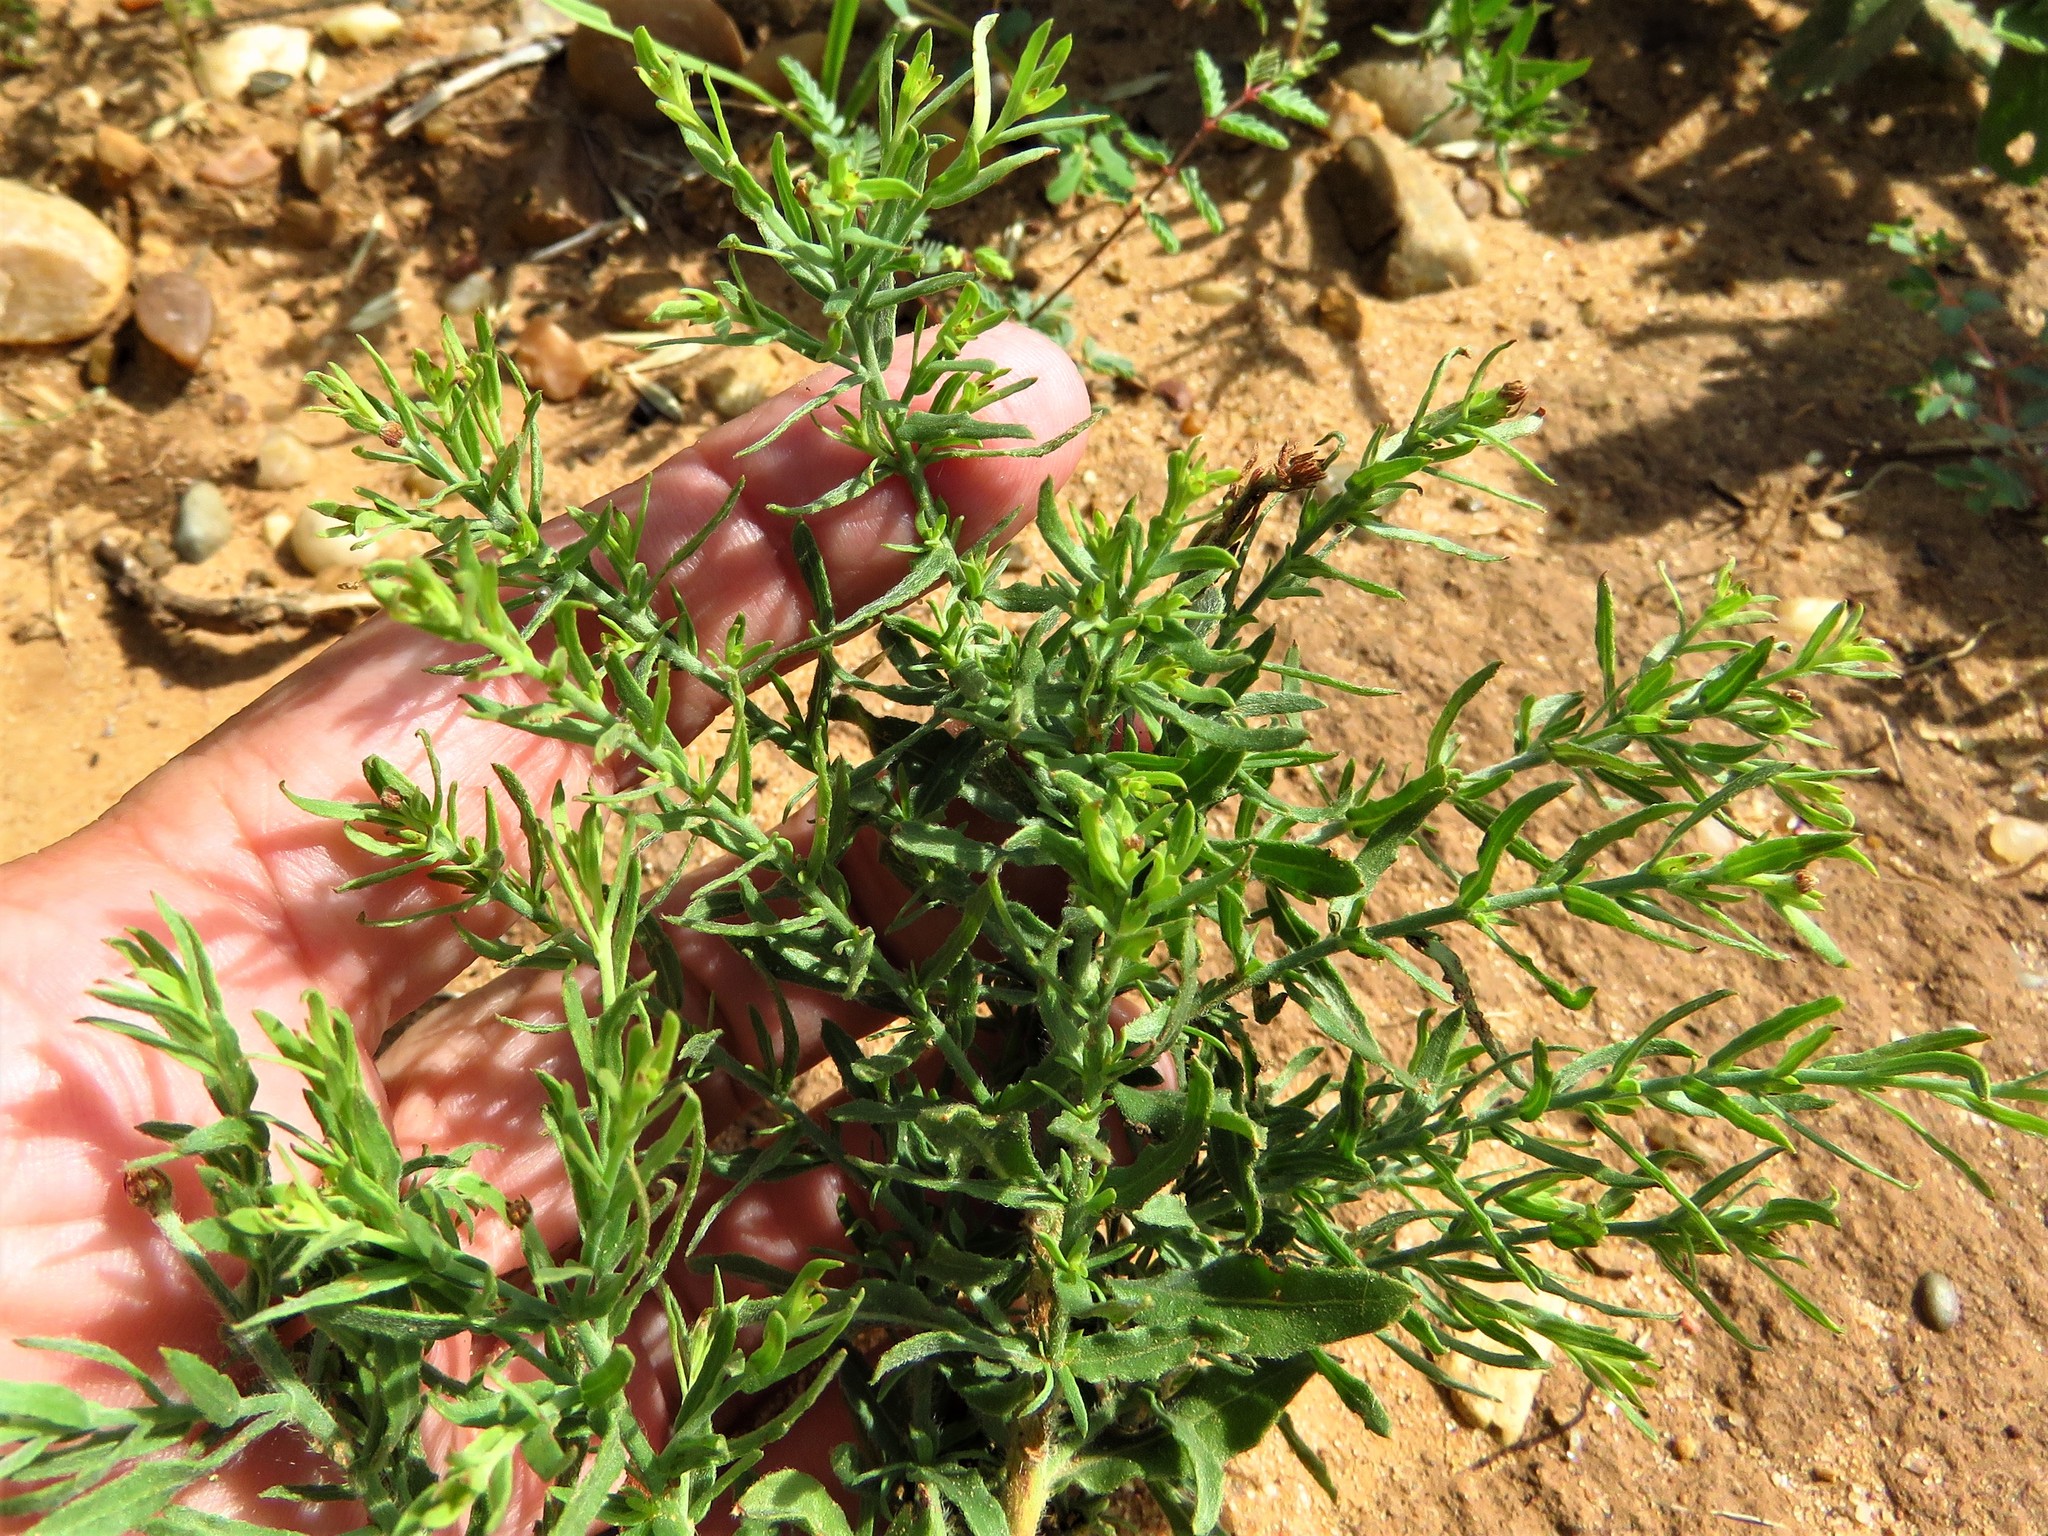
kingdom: Plantae
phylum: Tracheophyta
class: Magnoliopsida
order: Myrtales
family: Onagraceae
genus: Oenothera
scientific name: Oenothera suffrutescens
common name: Scarlet beeblossom
